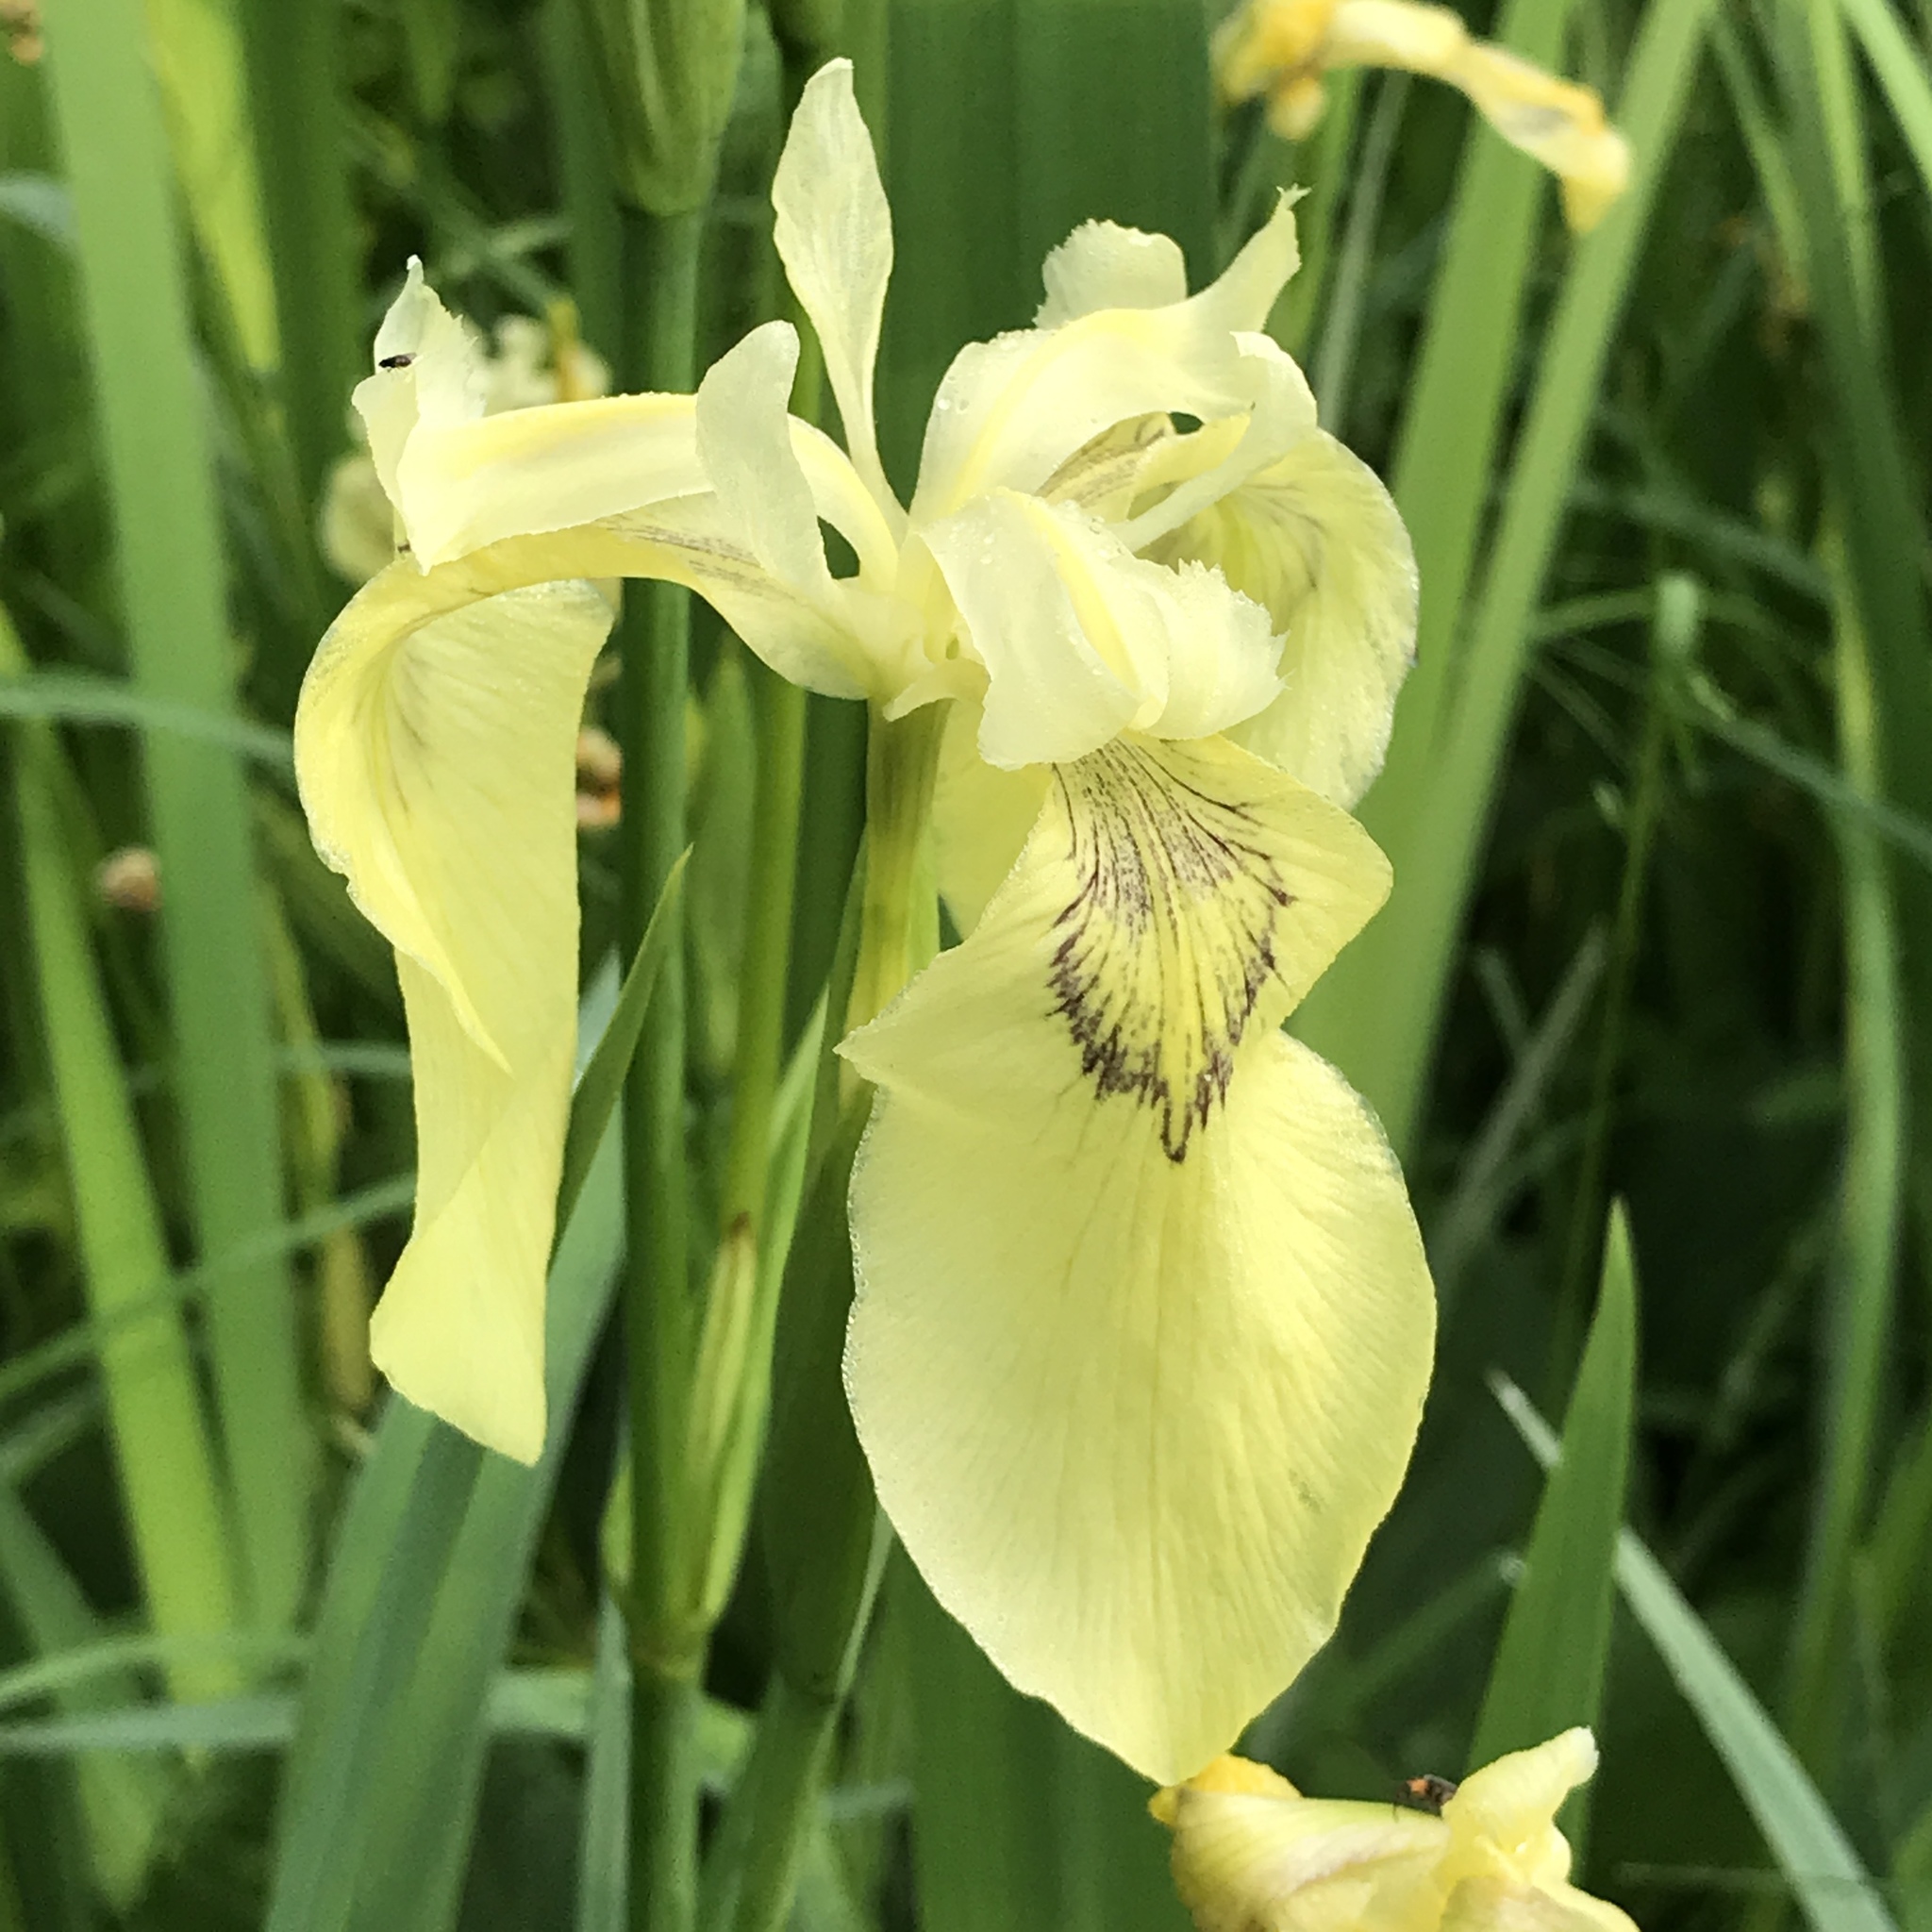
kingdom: Plantae
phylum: Tracheophyta
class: Liliopsida
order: Asparagales
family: Iridaceae
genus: Iris
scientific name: Iris pseudacorus
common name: Yellow flag
